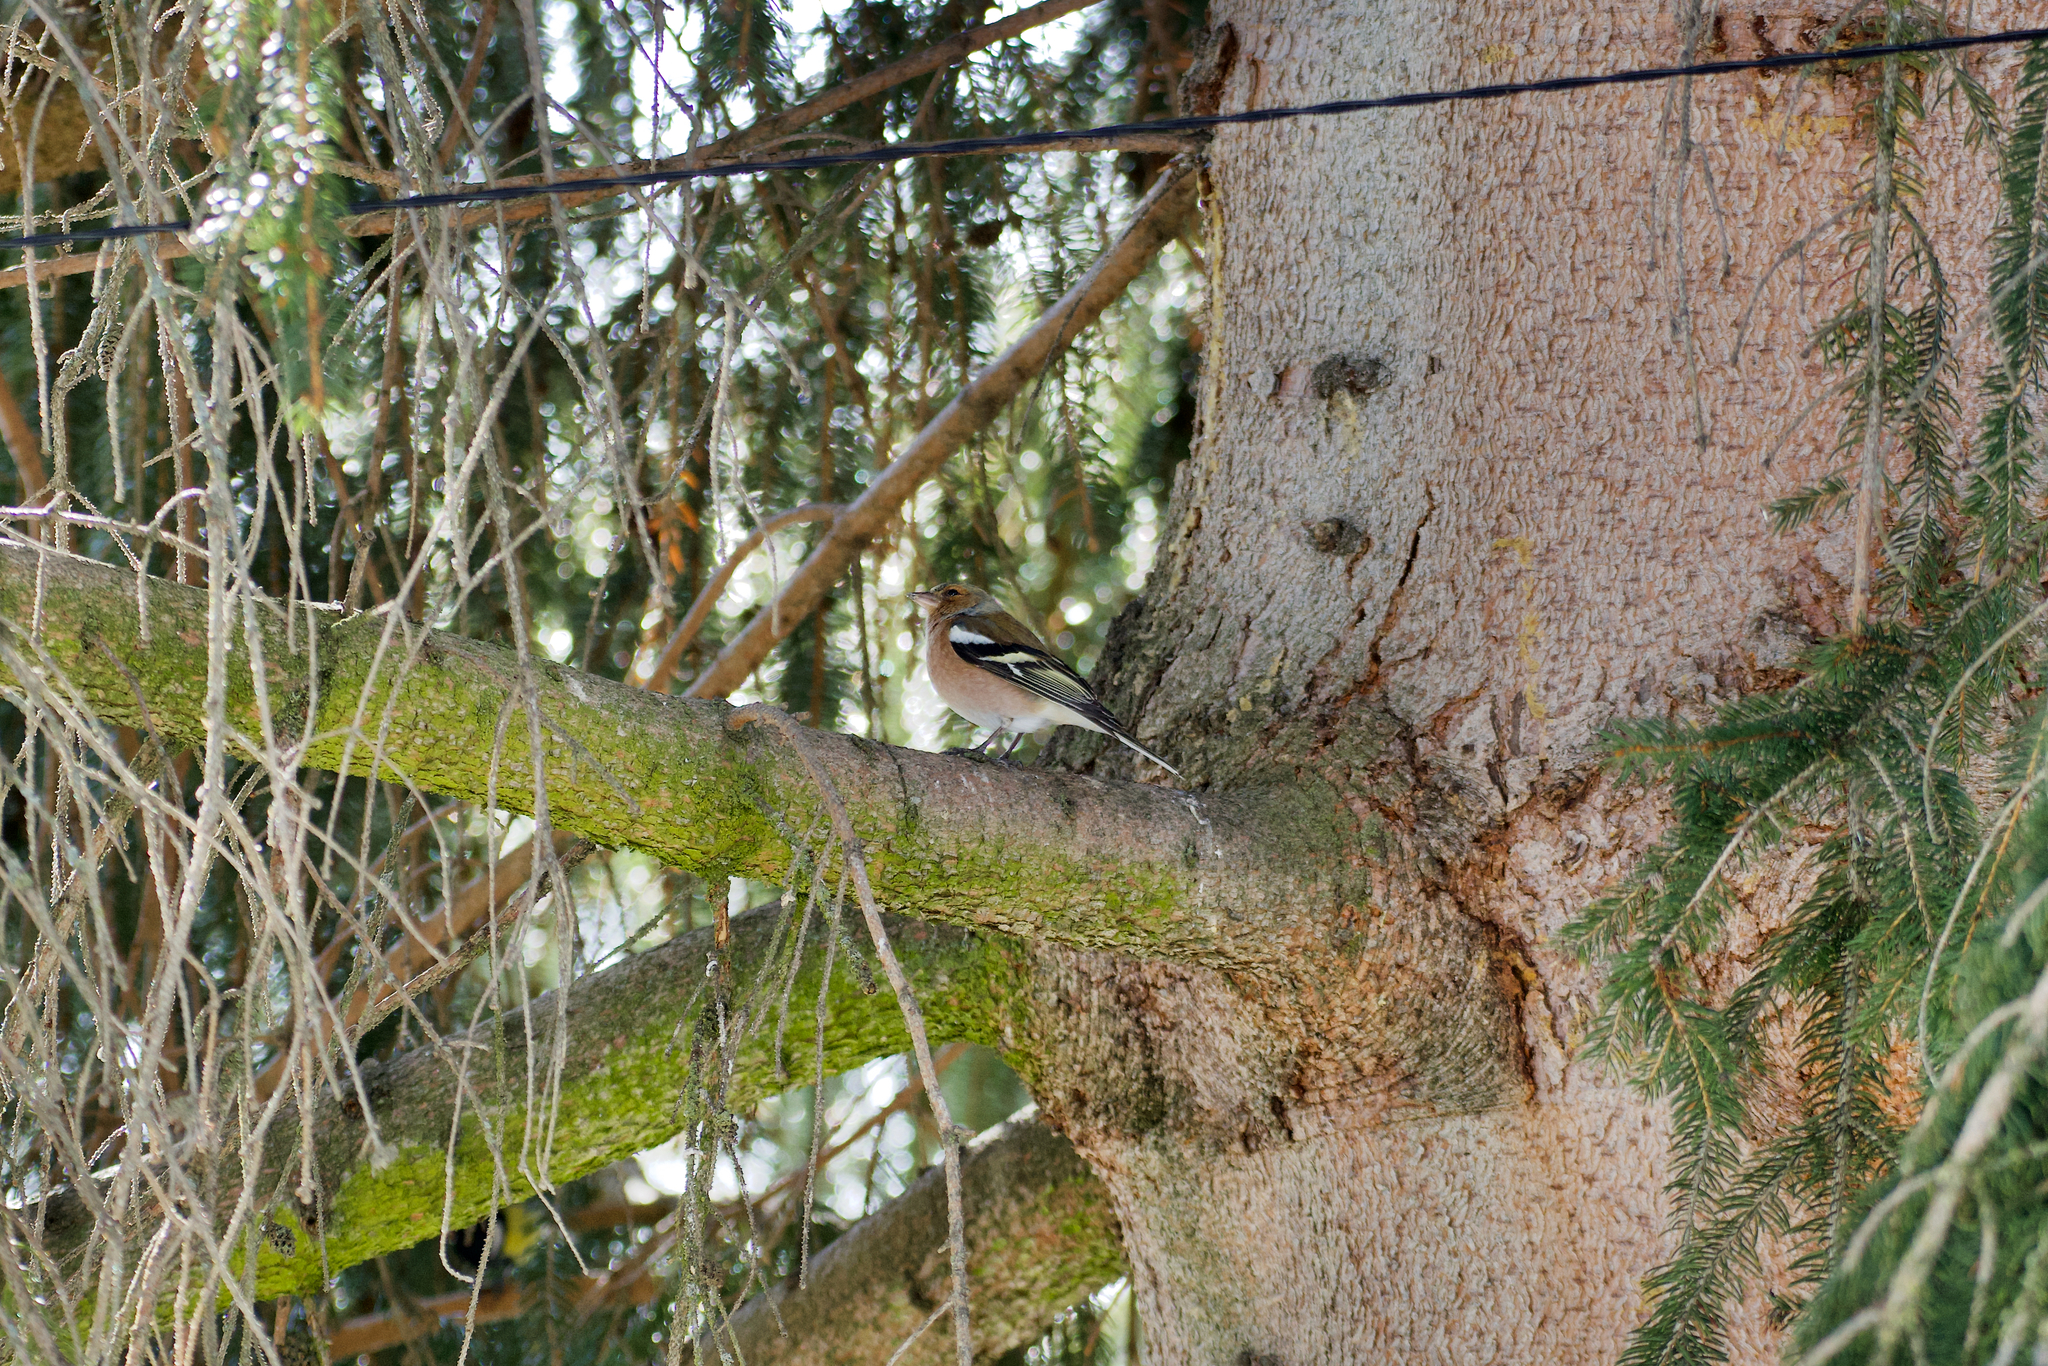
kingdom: Animalia
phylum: Chordata
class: Aves
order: Passeriformes
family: Fringillidae
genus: Fringilla
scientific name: Fringilla coelebs
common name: Common chaffinch
